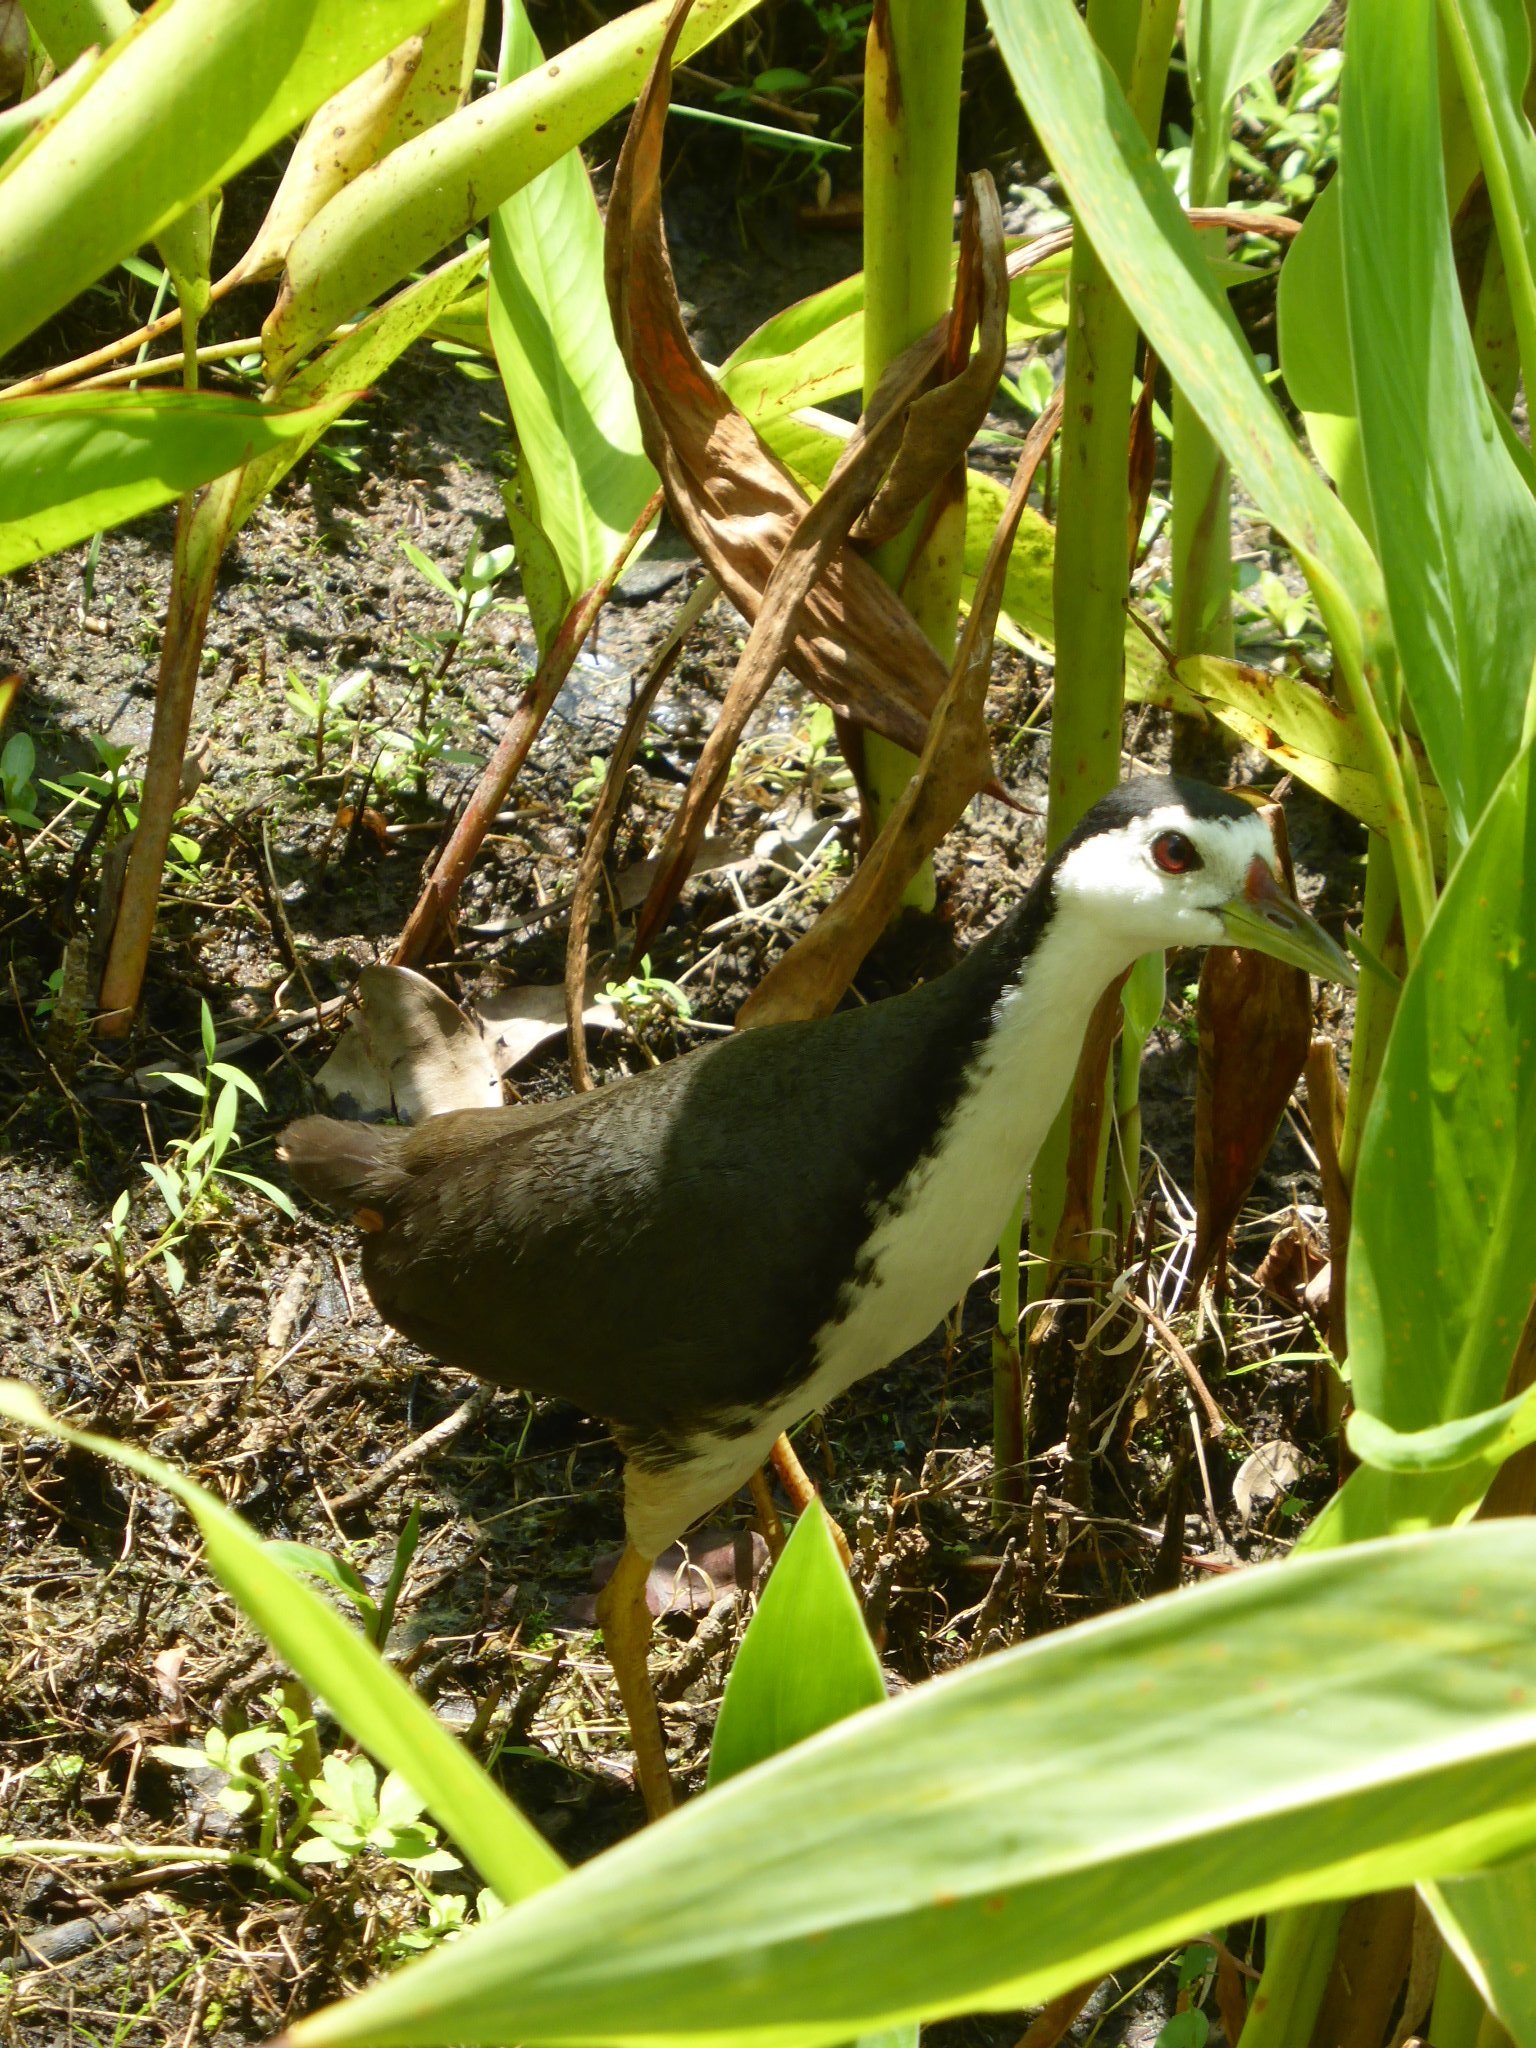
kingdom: Animalia
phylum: Chordata
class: Aves
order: Gruiformes
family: Rallidae
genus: Amaurornis
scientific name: Amaurornis phoenicurus
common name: White-breasted waterhen
